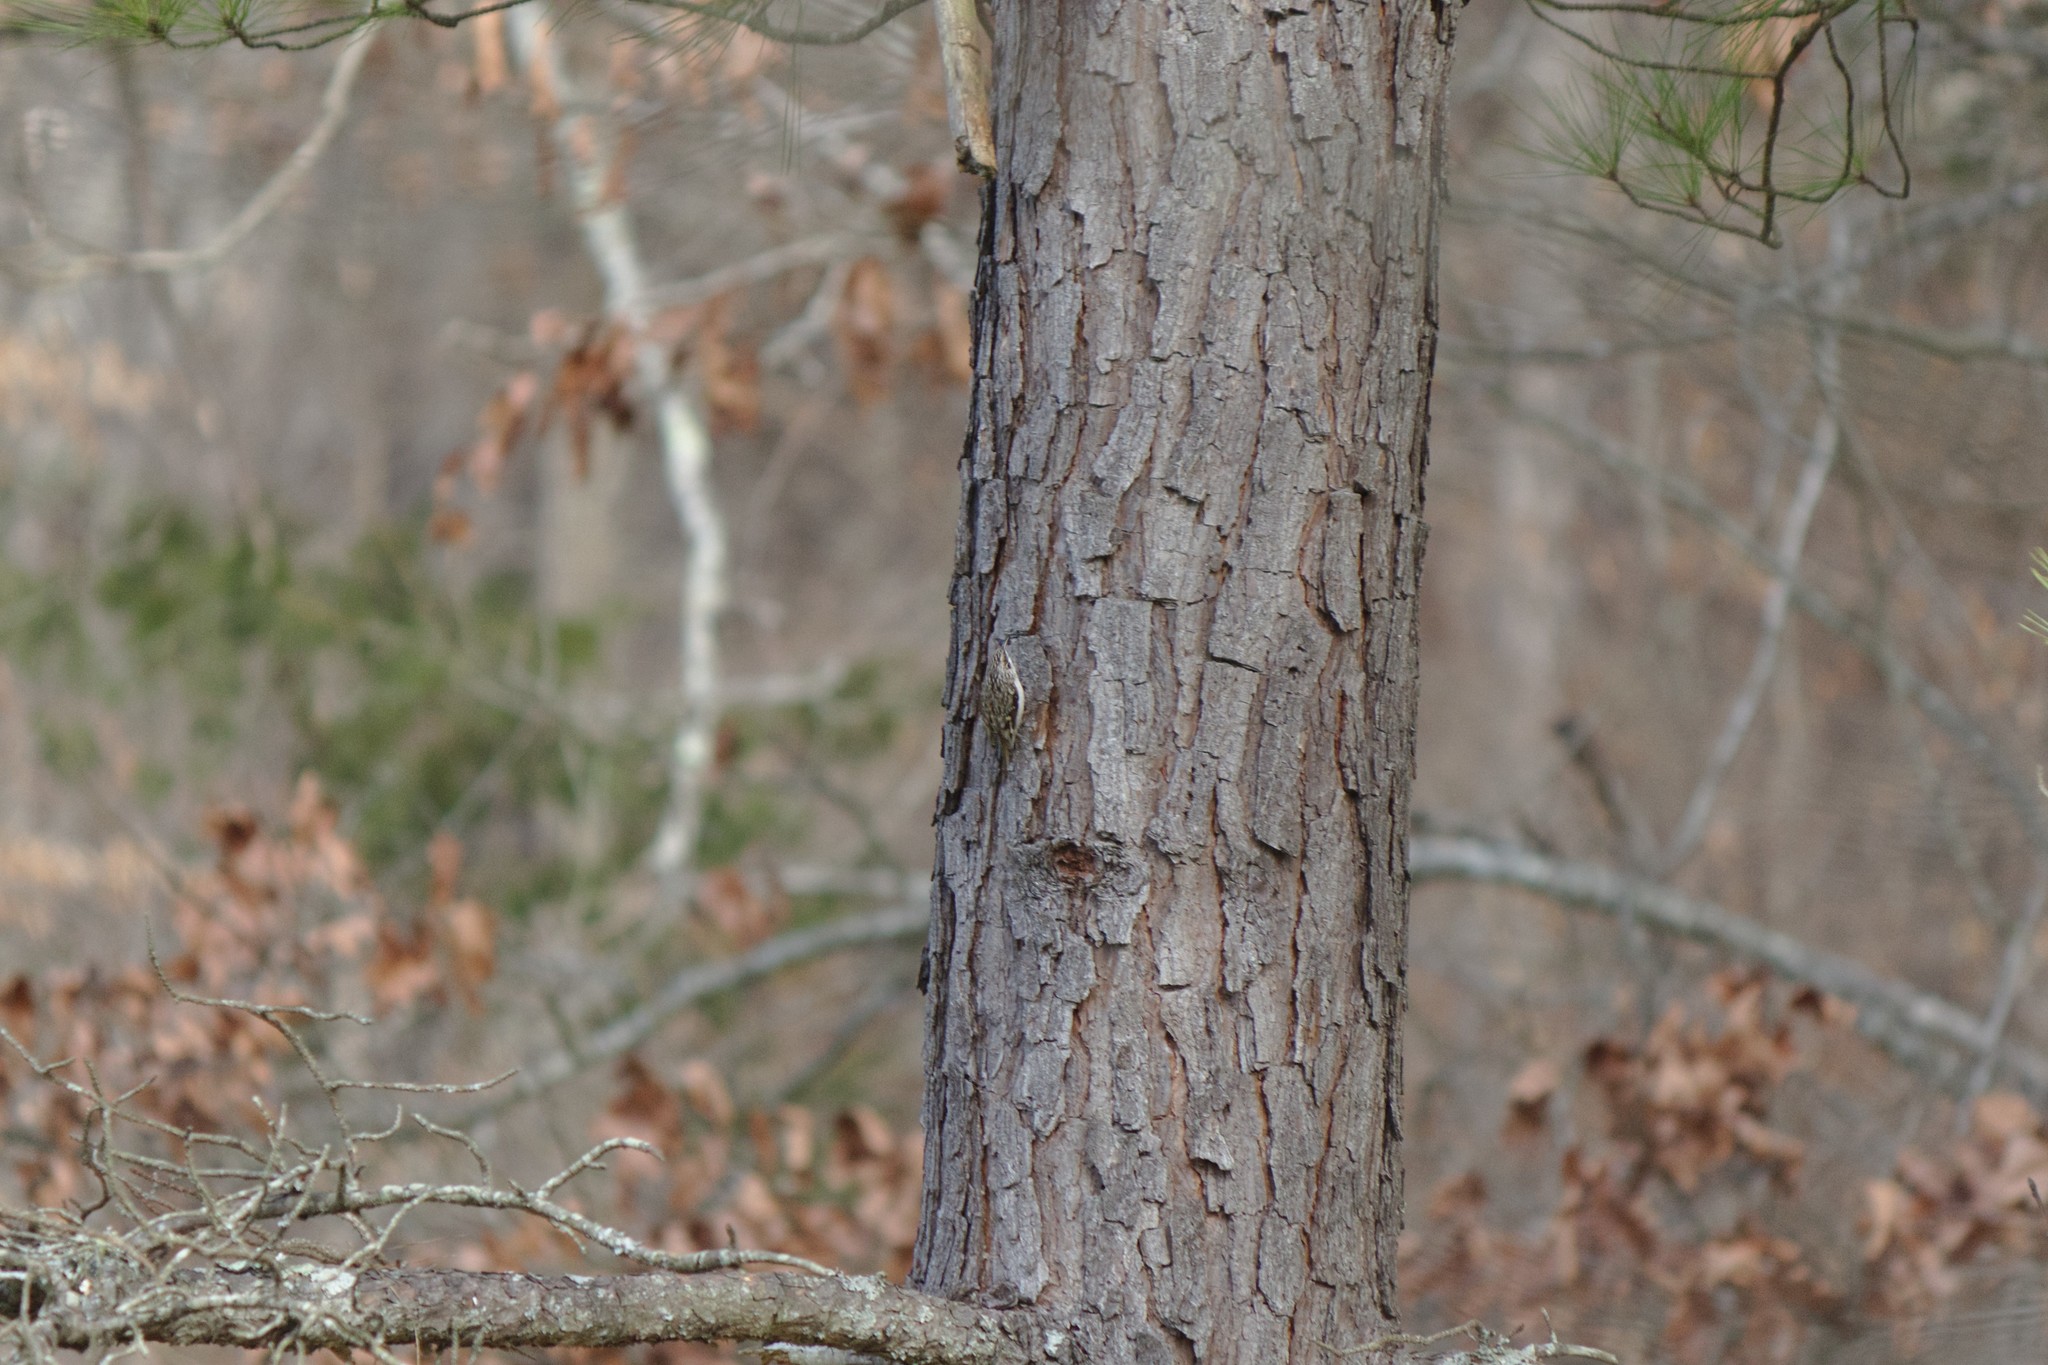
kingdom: Animalia
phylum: Chordata
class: Aves
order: Passeriformes
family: Certhiidae
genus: Certhia
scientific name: Certhia americana
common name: Brown creeper
